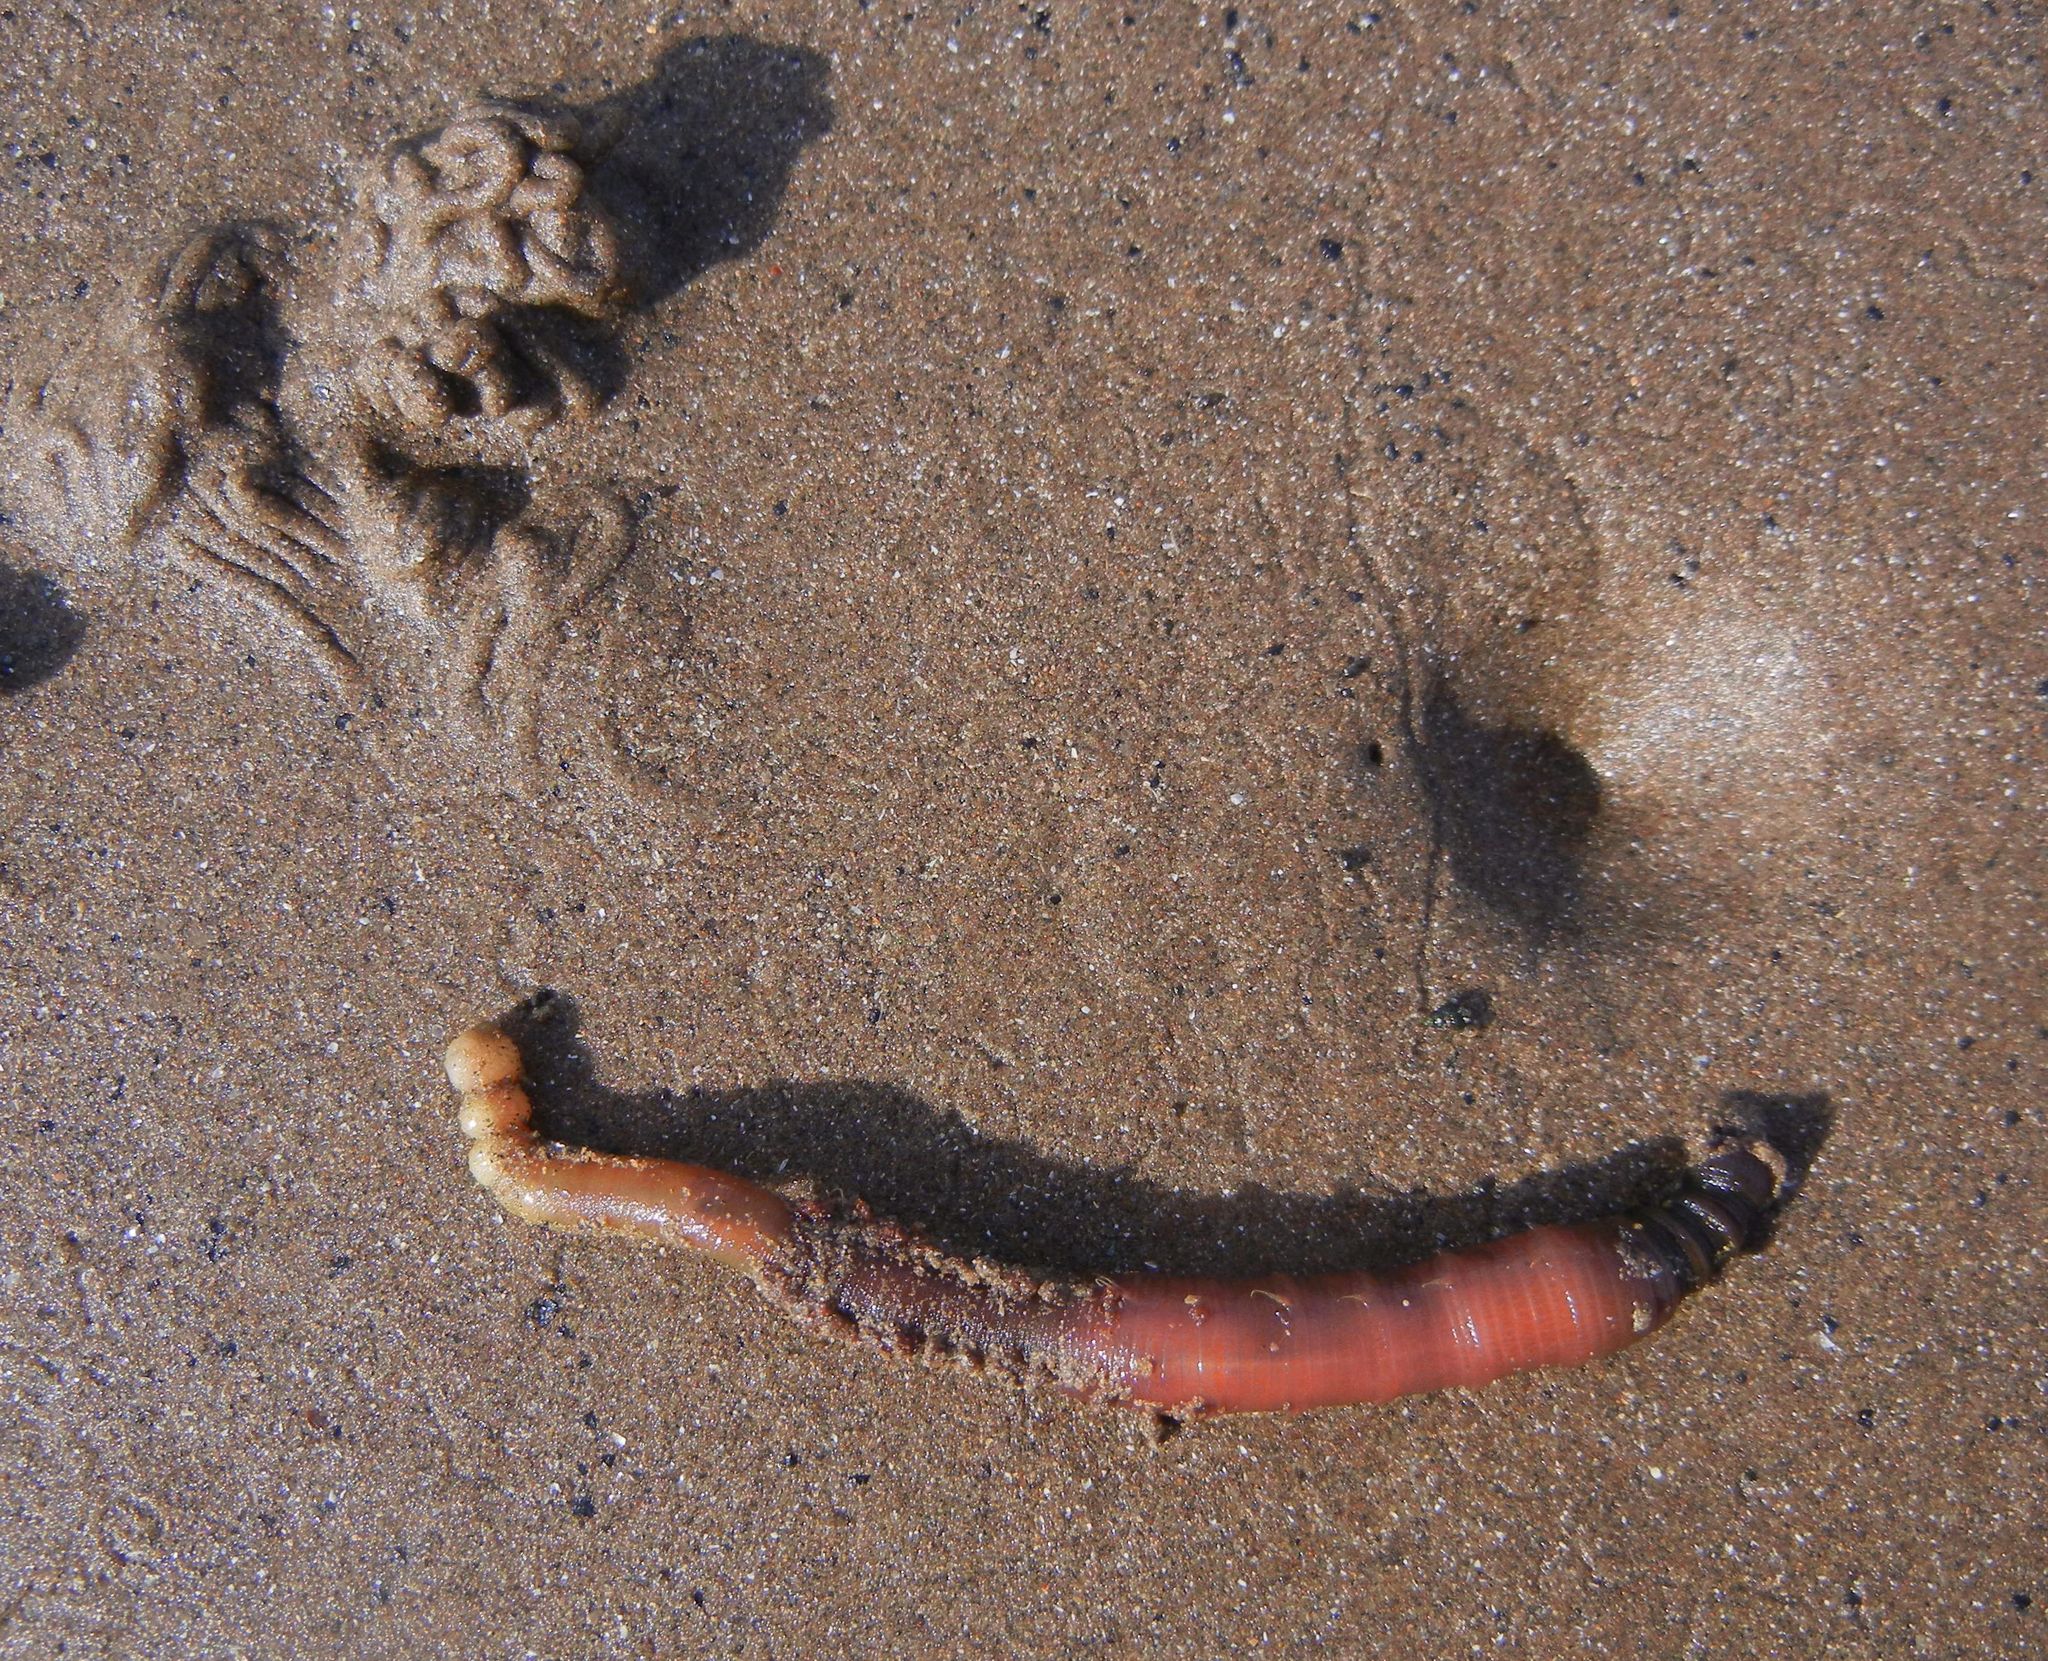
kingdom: Animalia
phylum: Annelida
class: Polychaeta
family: Arenicolidae
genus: Arenicola
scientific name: Arenicola marina
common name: Blow lugworm
